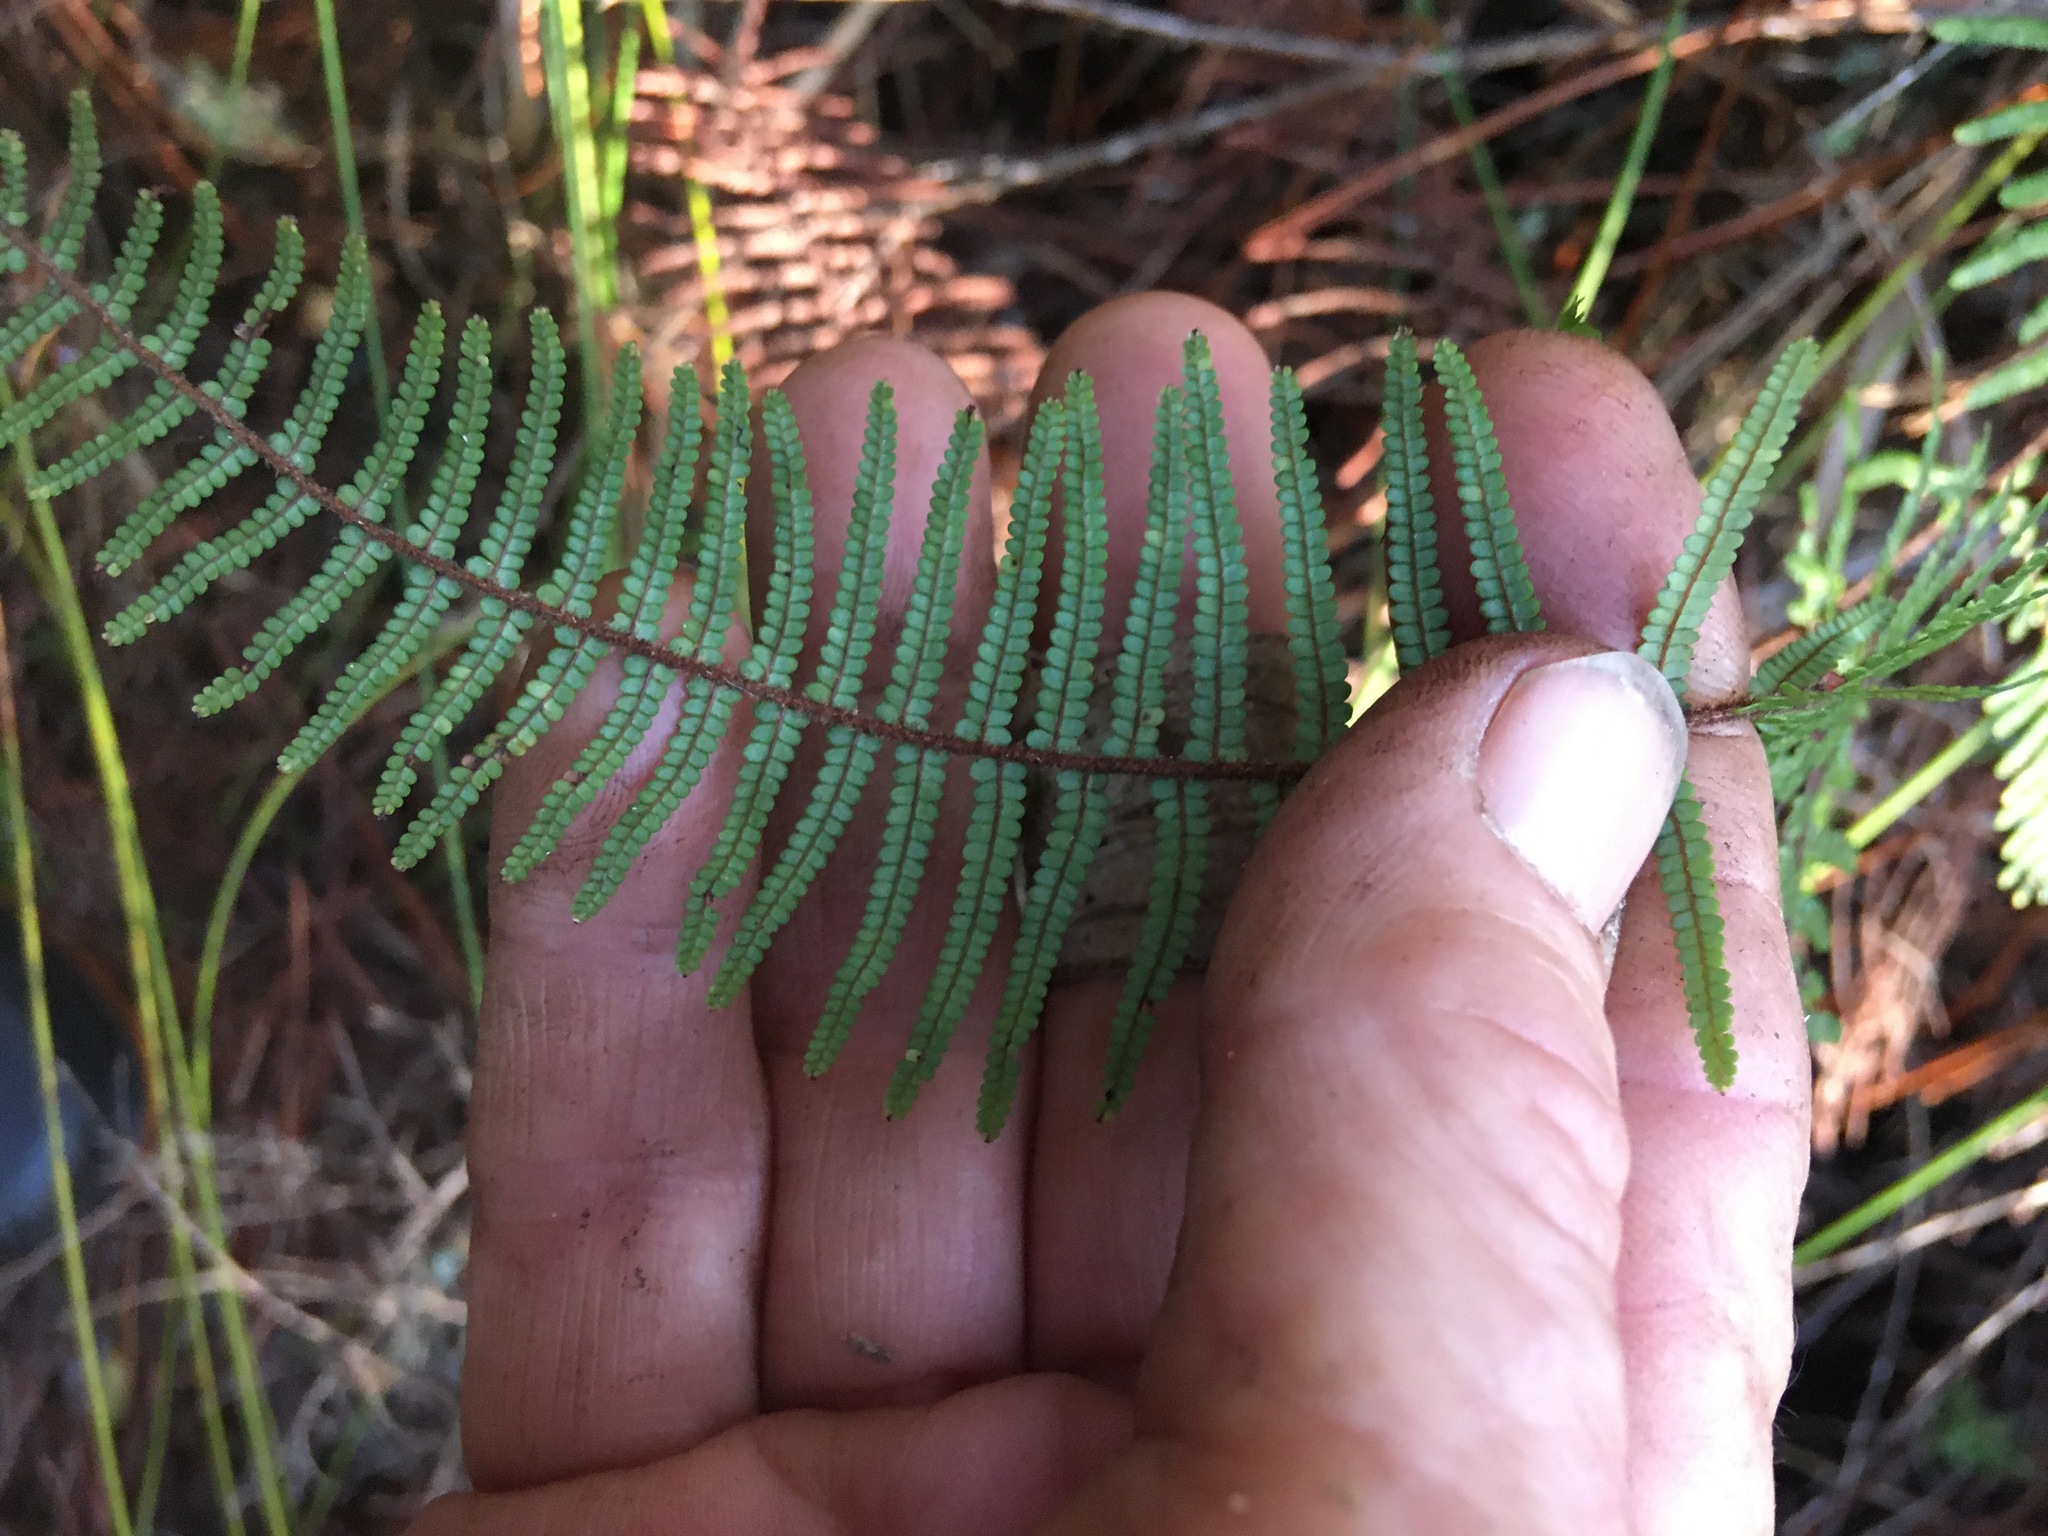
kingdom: Plantae
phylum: Tracheophyta
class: Polypodiopsida
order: Gleicheniales
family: Gleicheniaceae
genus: Gleichenia
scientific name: Gleichenia microphylla
